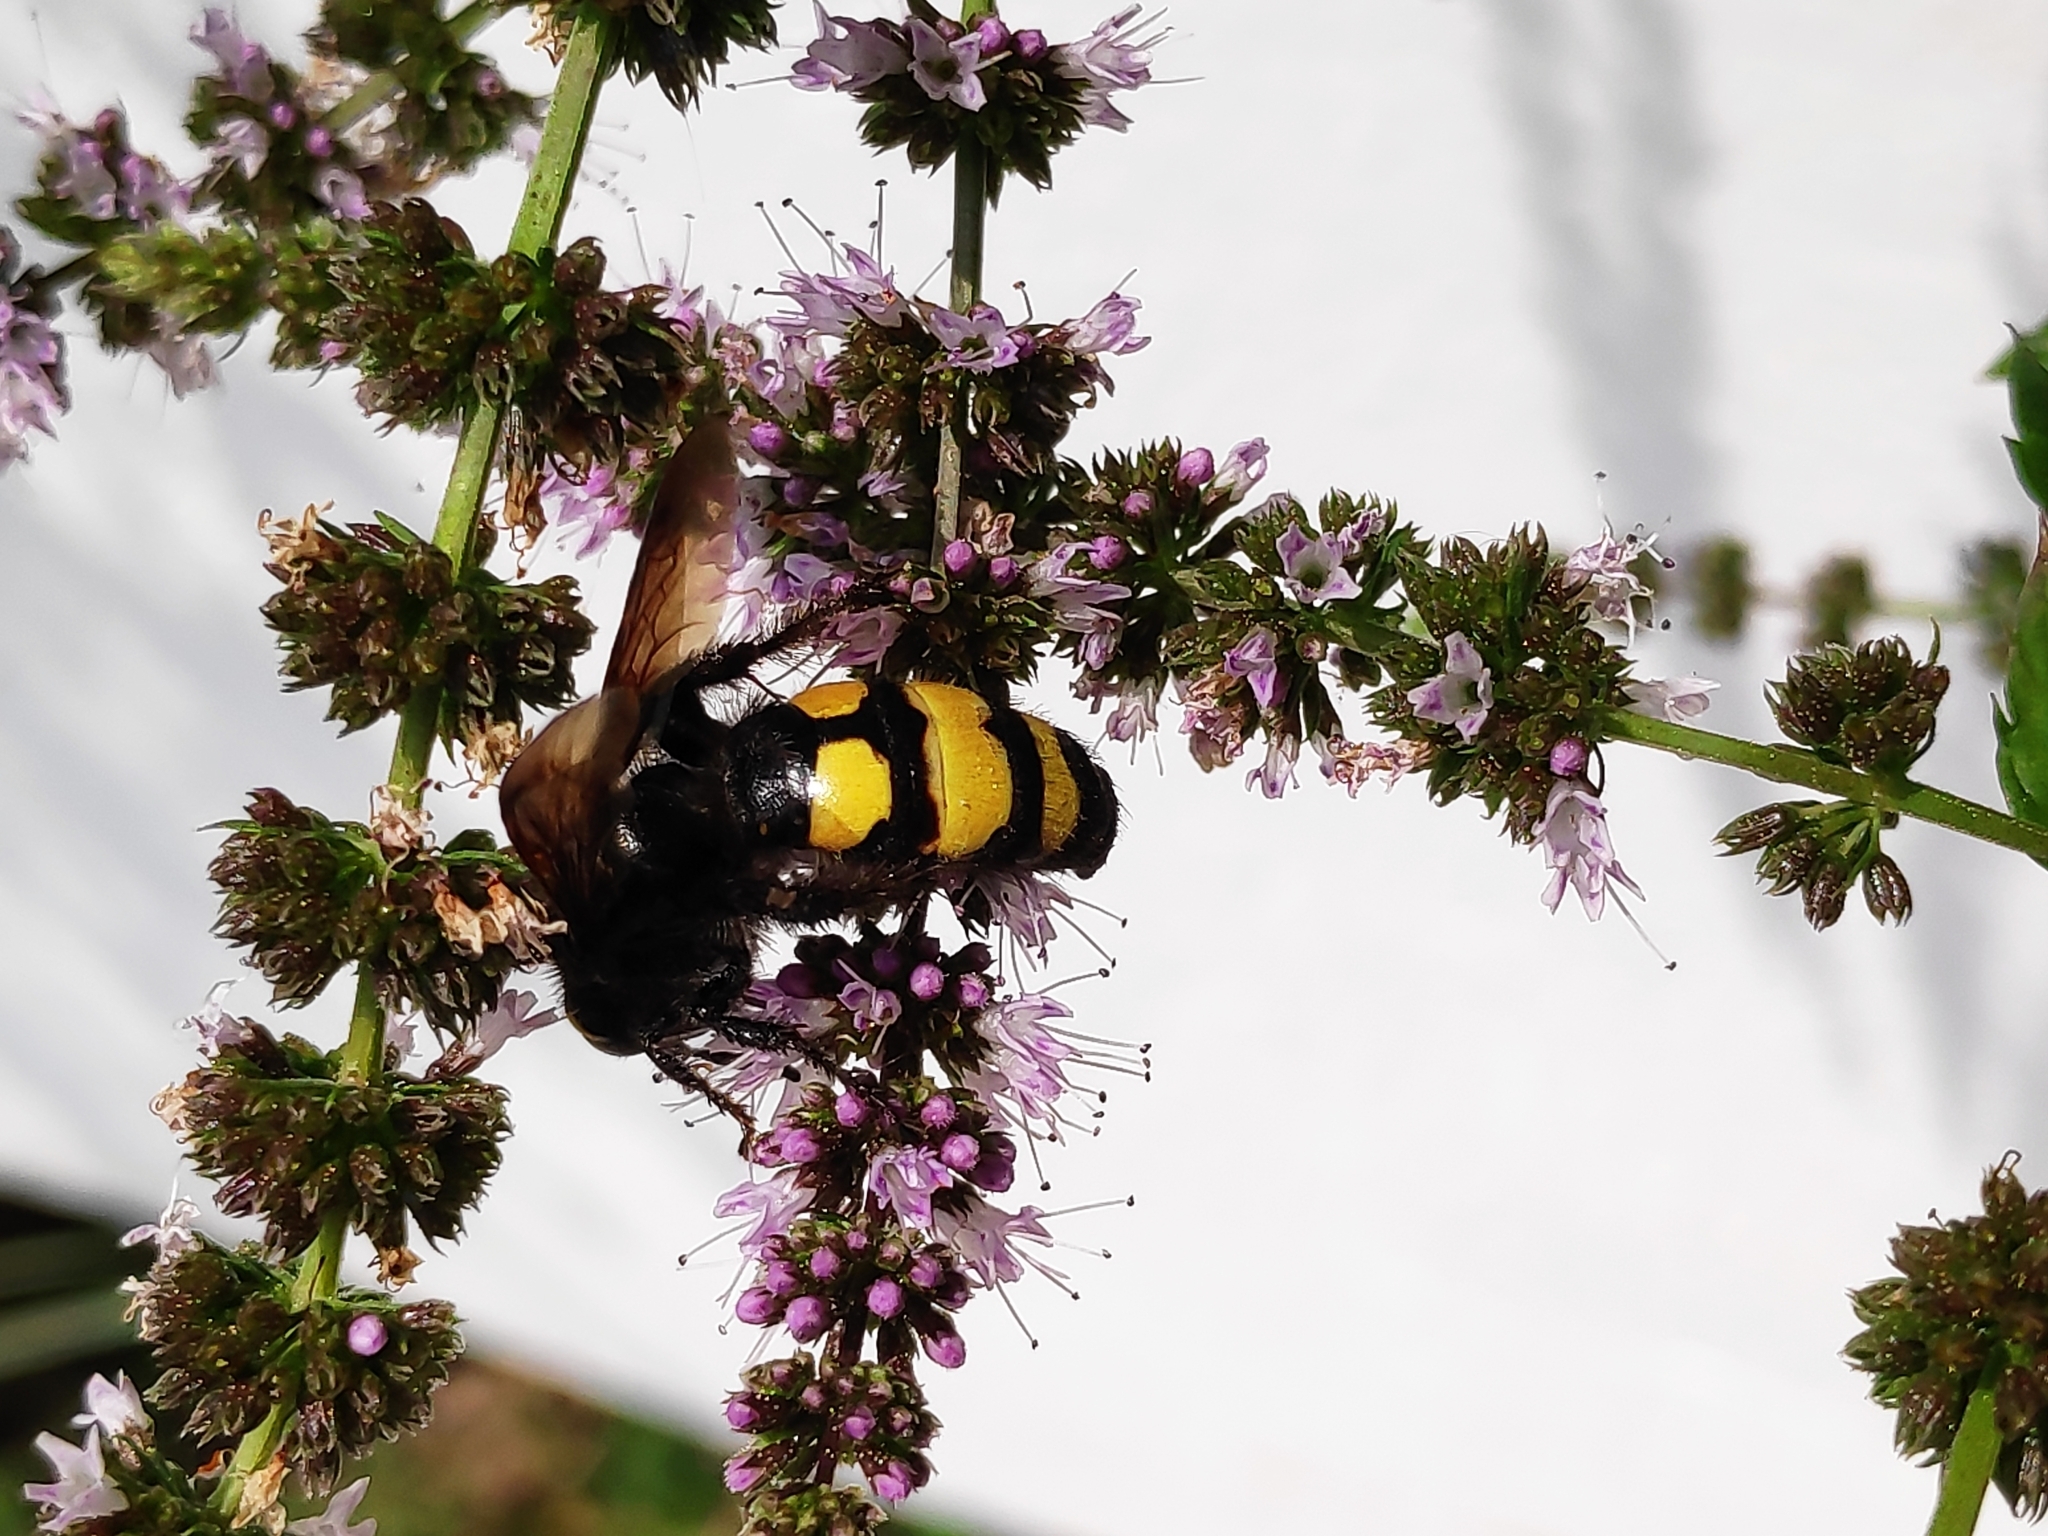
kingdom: Animalia
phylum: Arthropoda
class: Insecta
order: Hymenoptera
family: Vespidae
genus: Vespa
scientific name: Vespa sexmaculata
